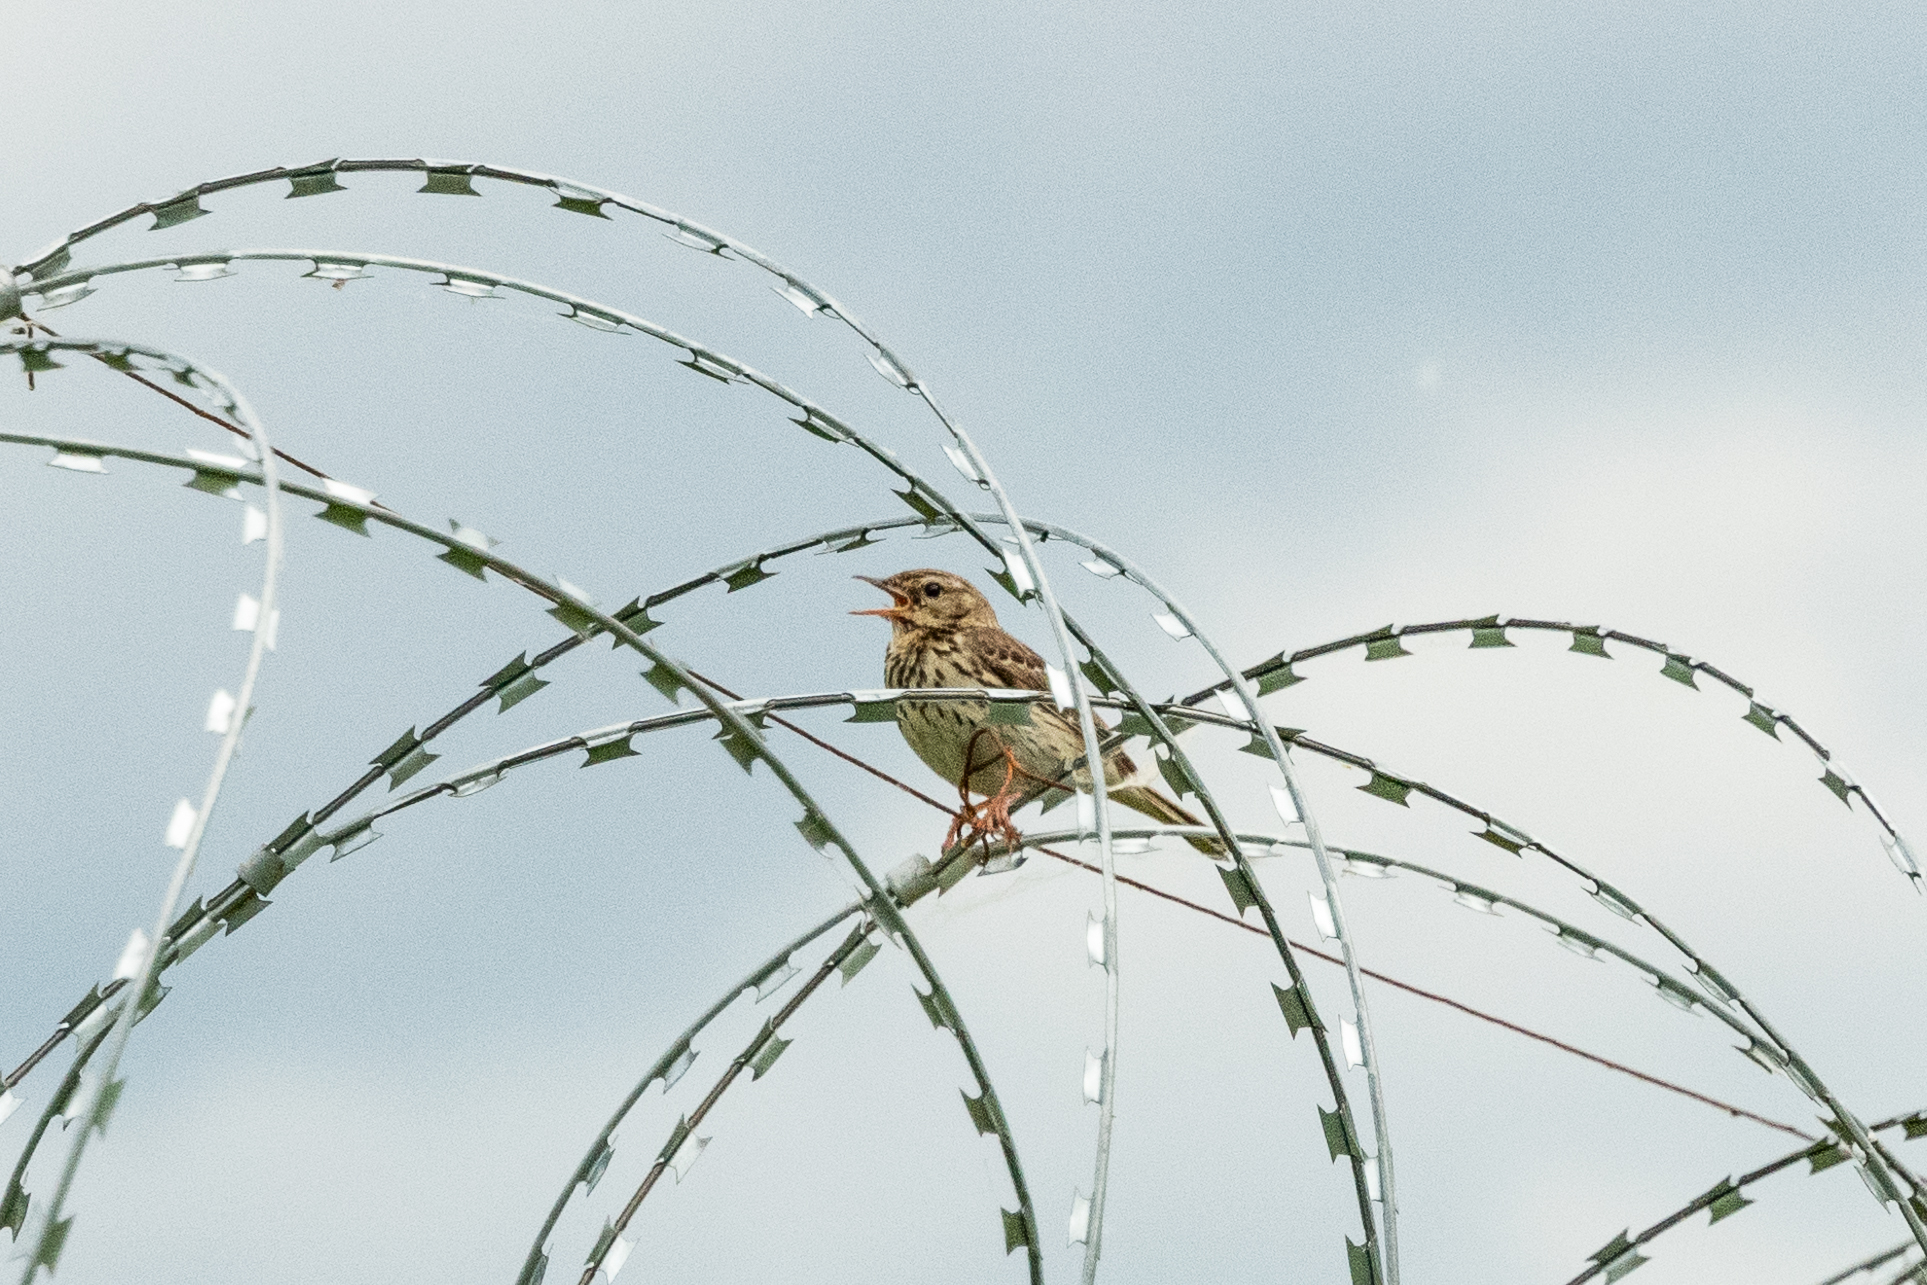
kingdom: Animalia
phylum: Chordata
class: Aves
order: Passeriformes
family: Motacillidae
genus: Anthus
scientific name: Anthus trivialis
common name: Tree pipit
